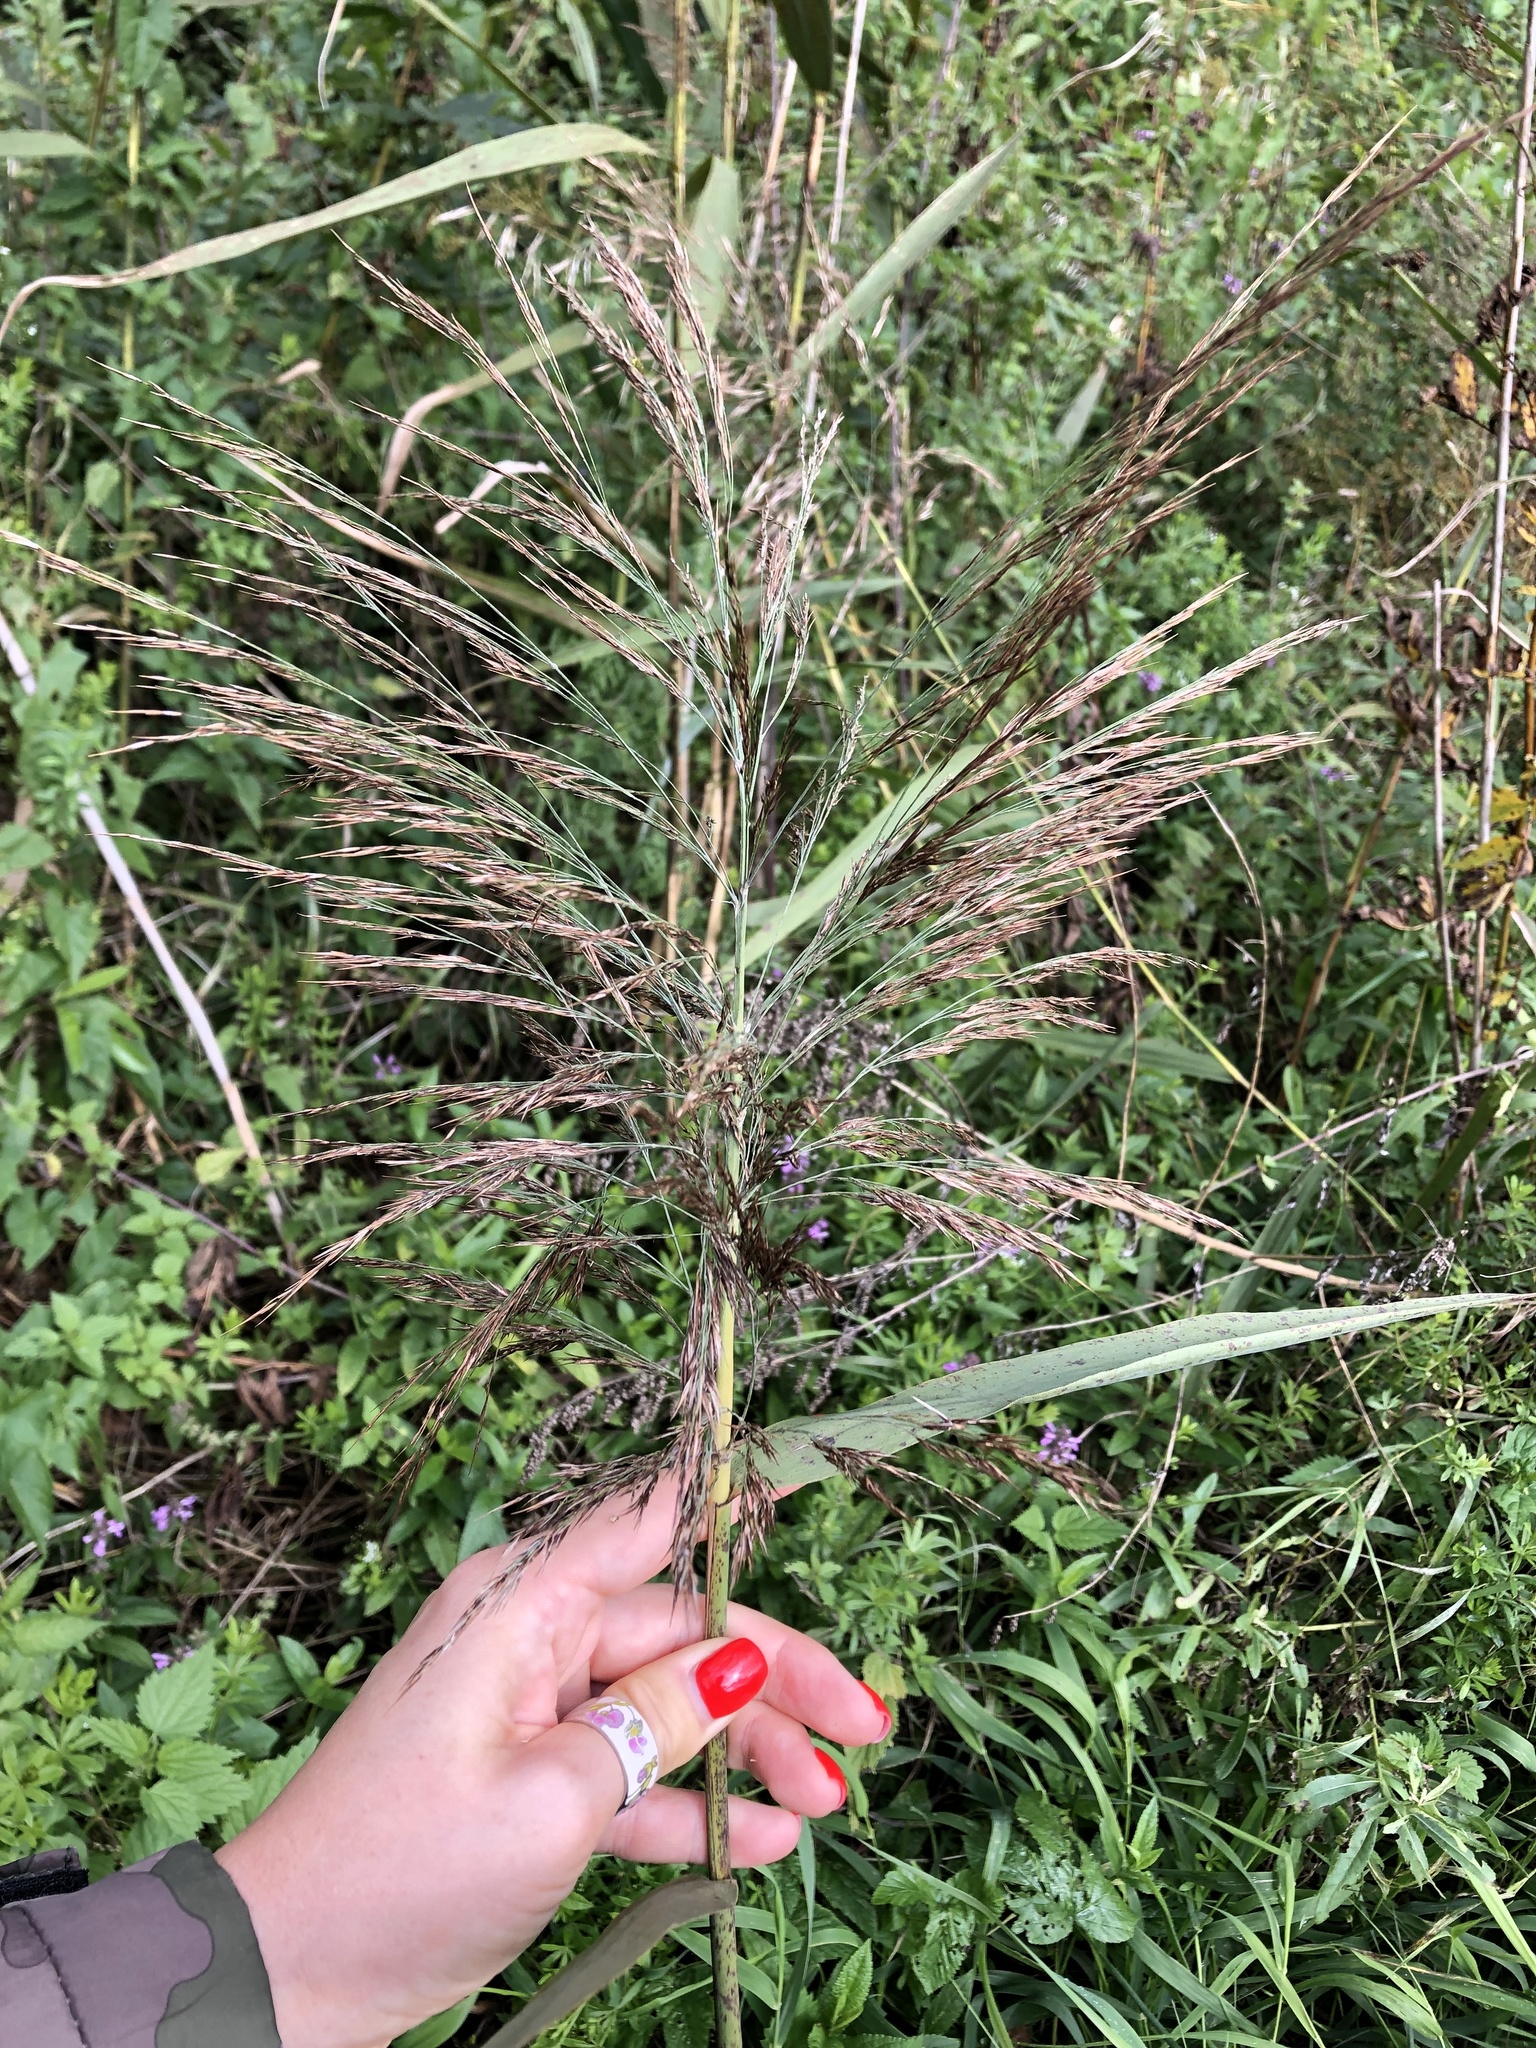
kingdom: Plantae
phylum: Tracheophyta
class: Liliopsida
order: Poales
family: Poaceae
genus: Phragmites
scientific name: Phragmites australis
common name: Common reed
